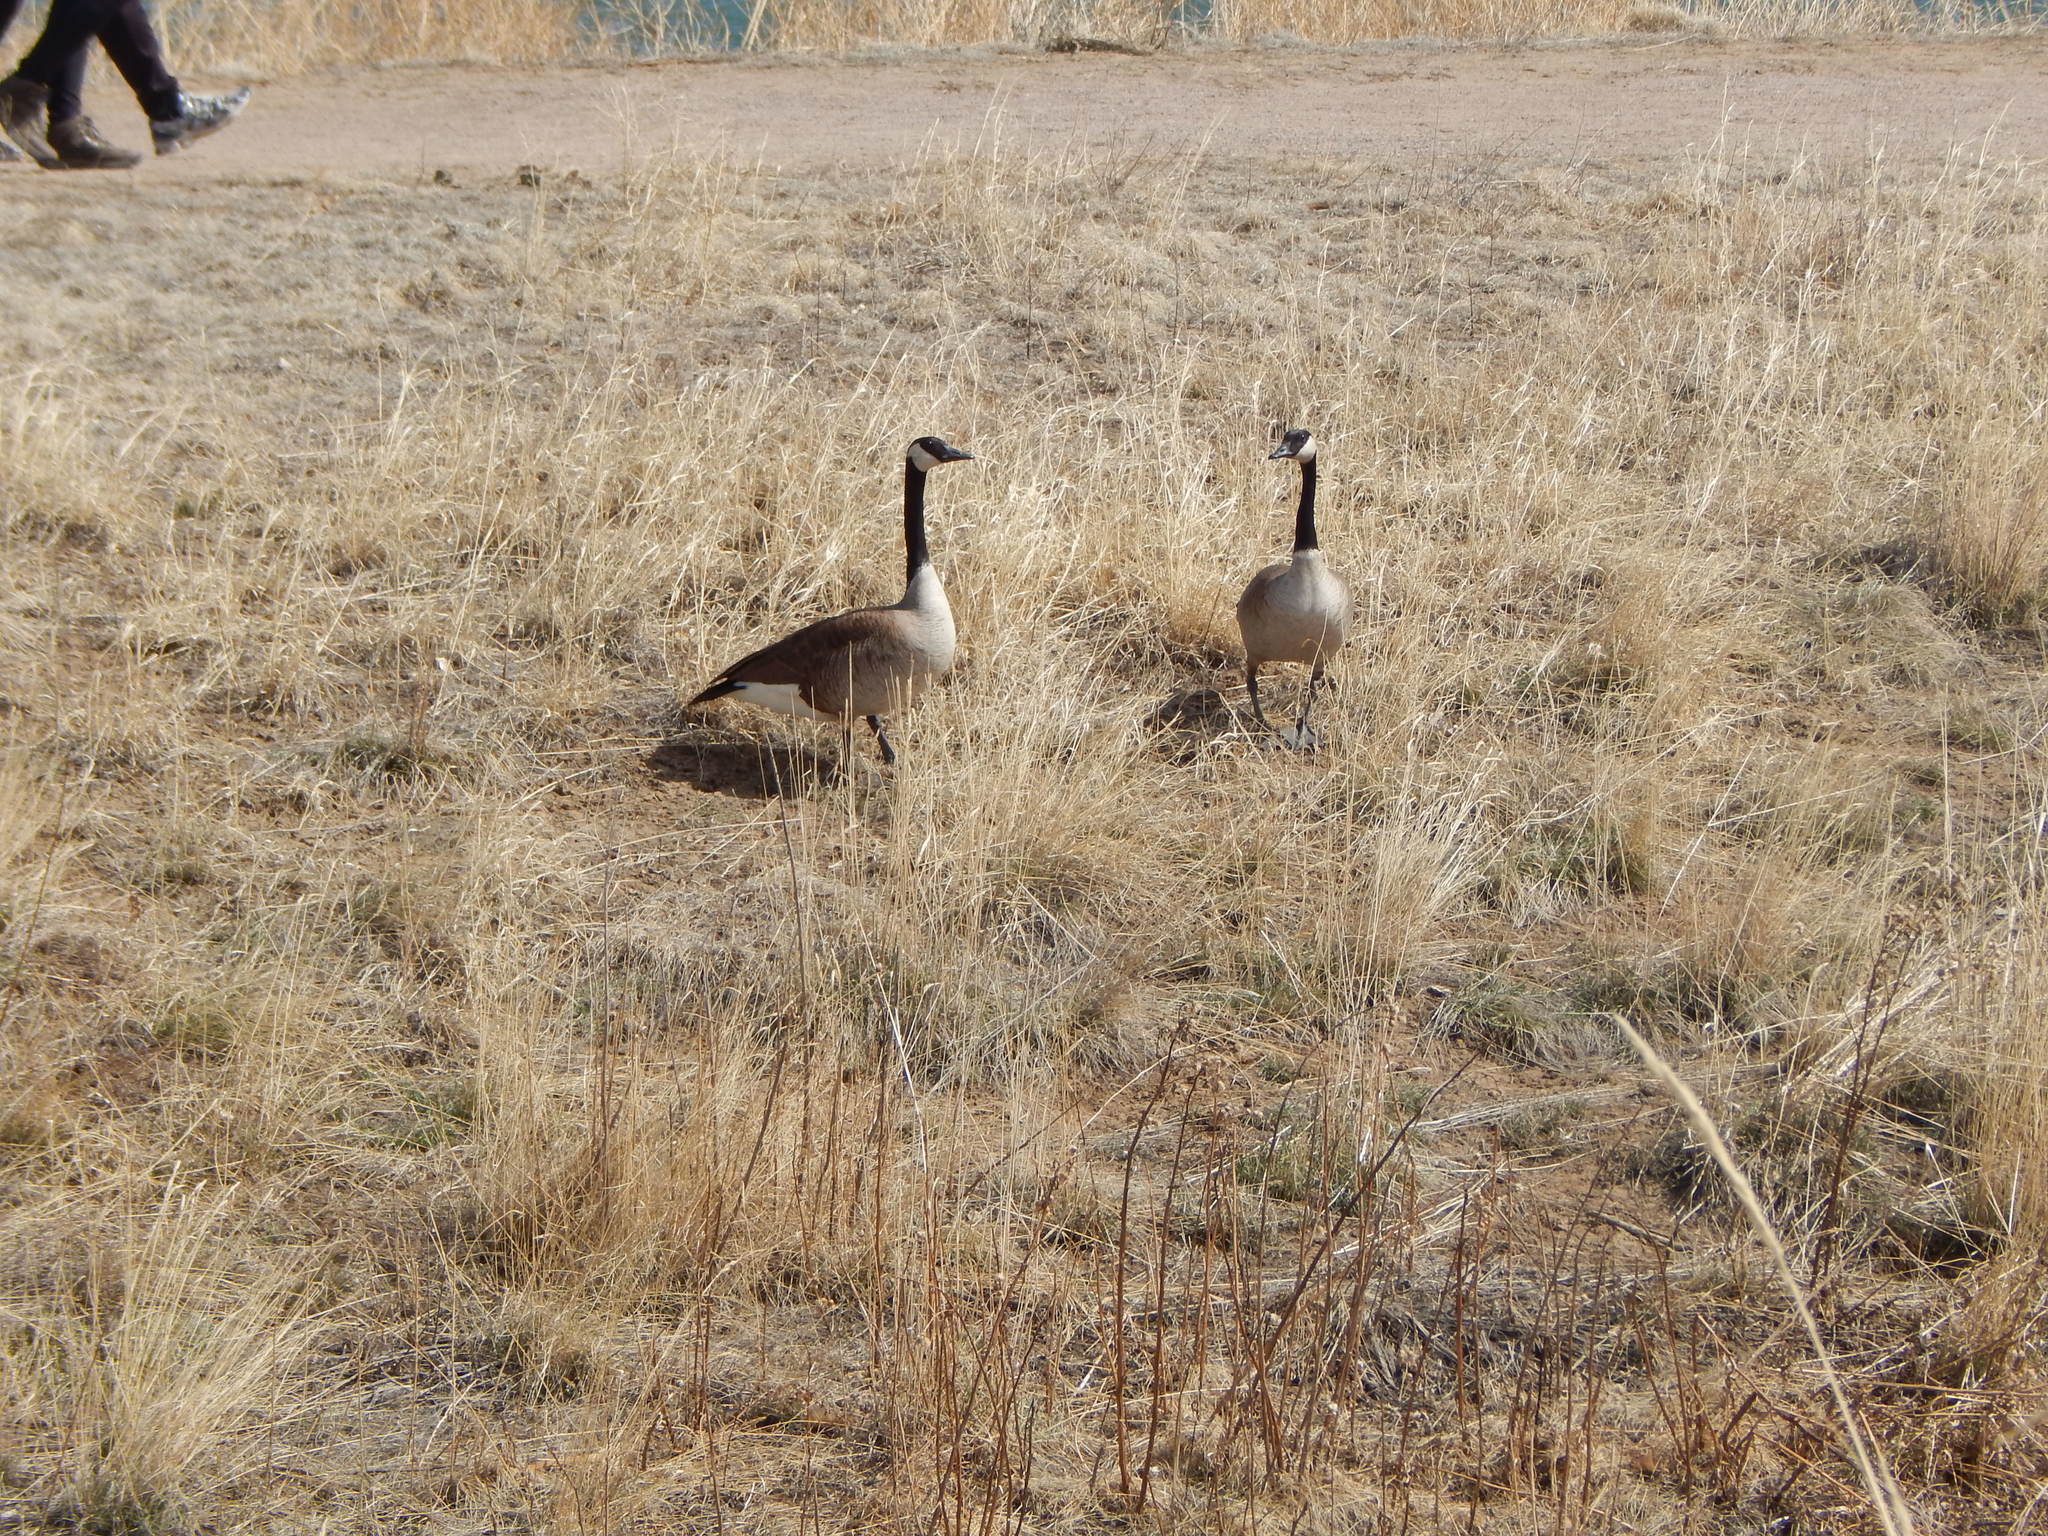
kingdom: Animalia
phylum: Chordata
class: Aves
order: Anseriformes
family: Anatidae
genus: Branta
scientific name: Branta canadensis
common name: Canada goose
